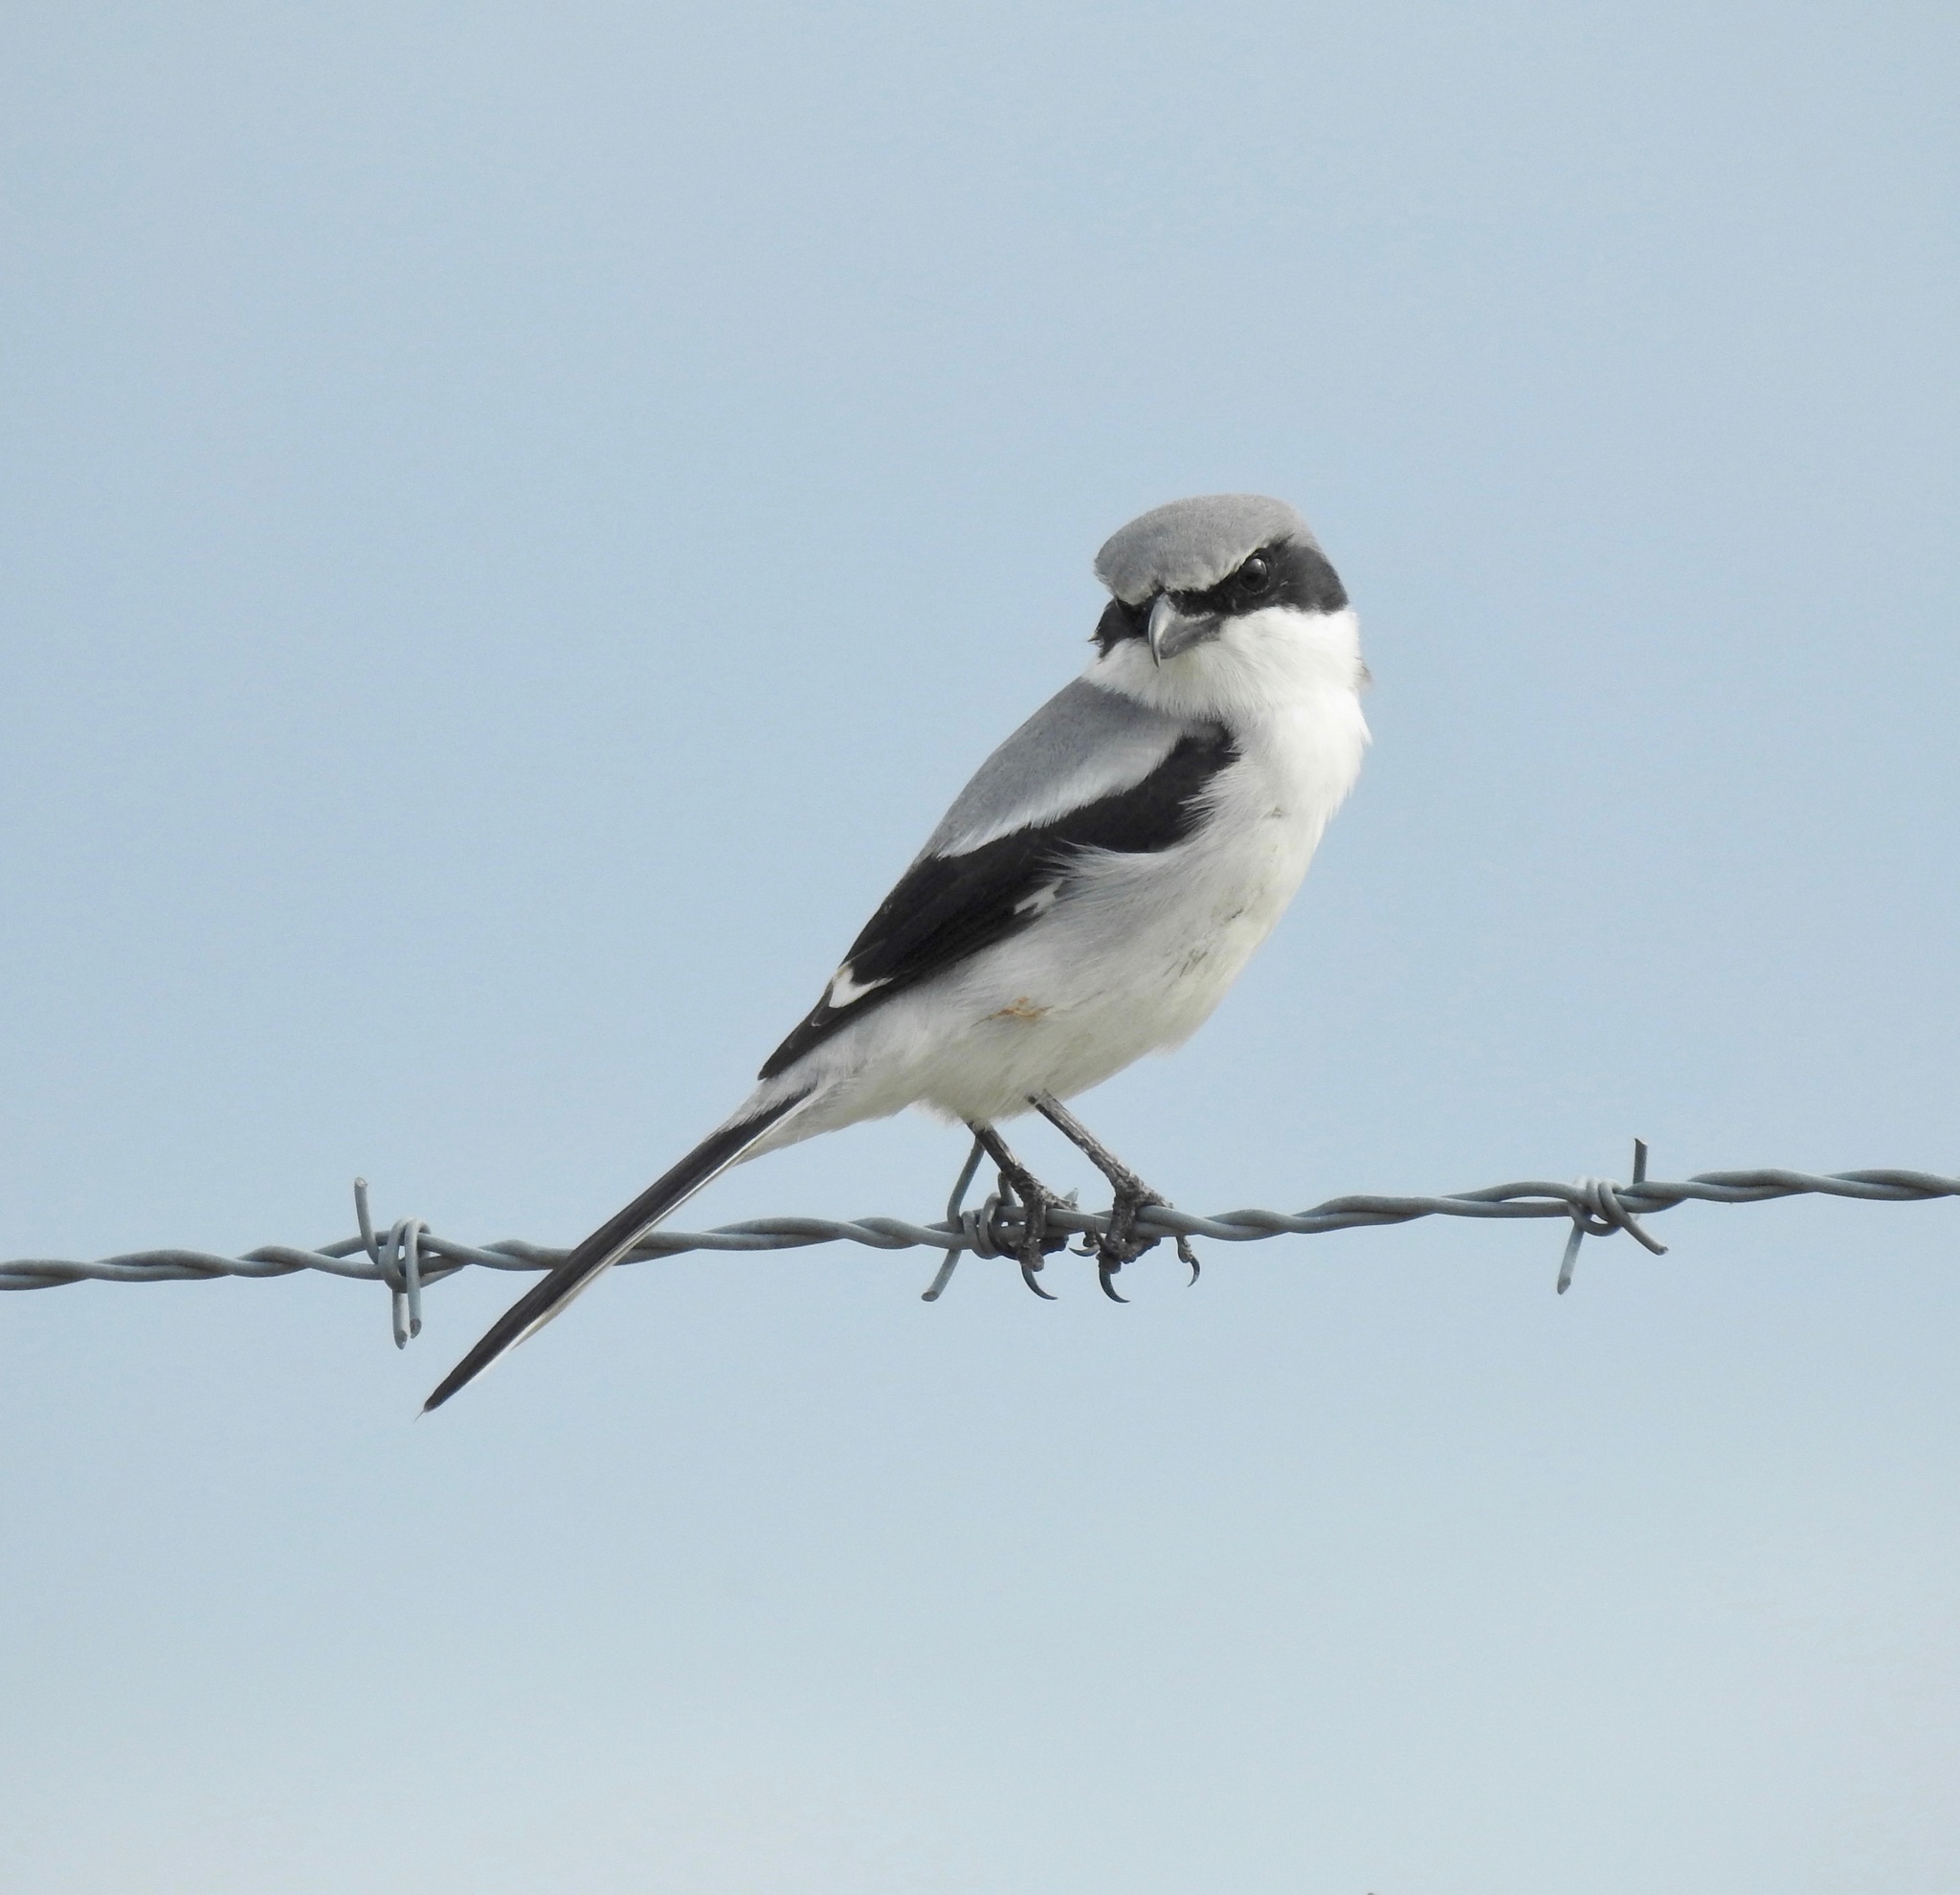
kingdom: Animalia
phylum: Chordata
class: Aves
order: Passeriformes
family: Laniidae
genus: Lanius
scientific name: Lanius ludovicianus
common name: Loggerhead shrike
